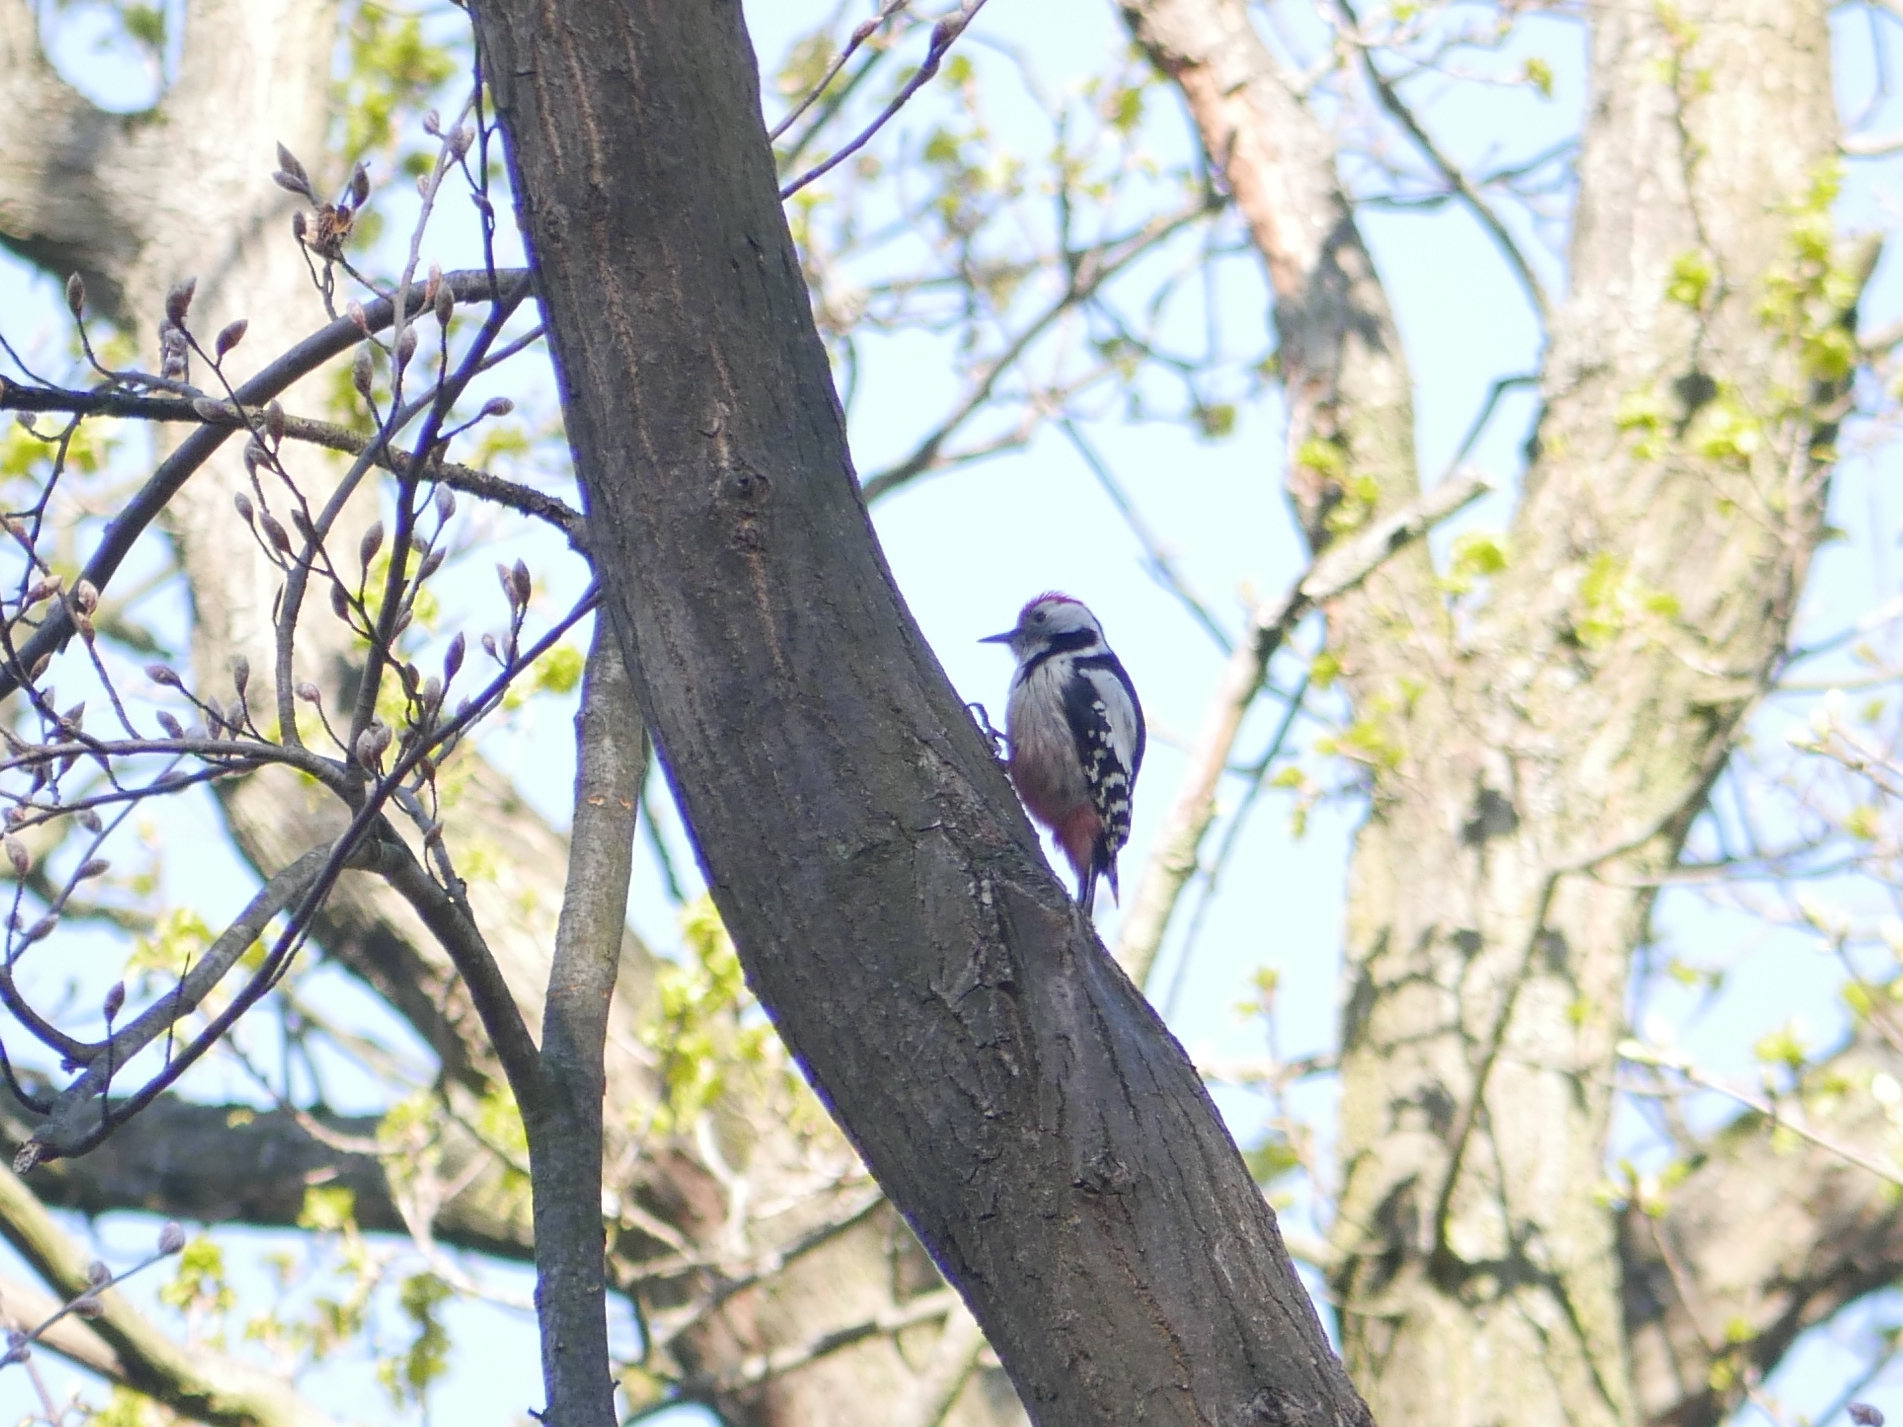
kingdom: Animalia
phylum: Chordata
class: Aves
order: Piciformes
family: Picidae
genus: Dendrocoptes
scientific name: Dendrocoptes medius
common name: Middle spotted woodpecker
